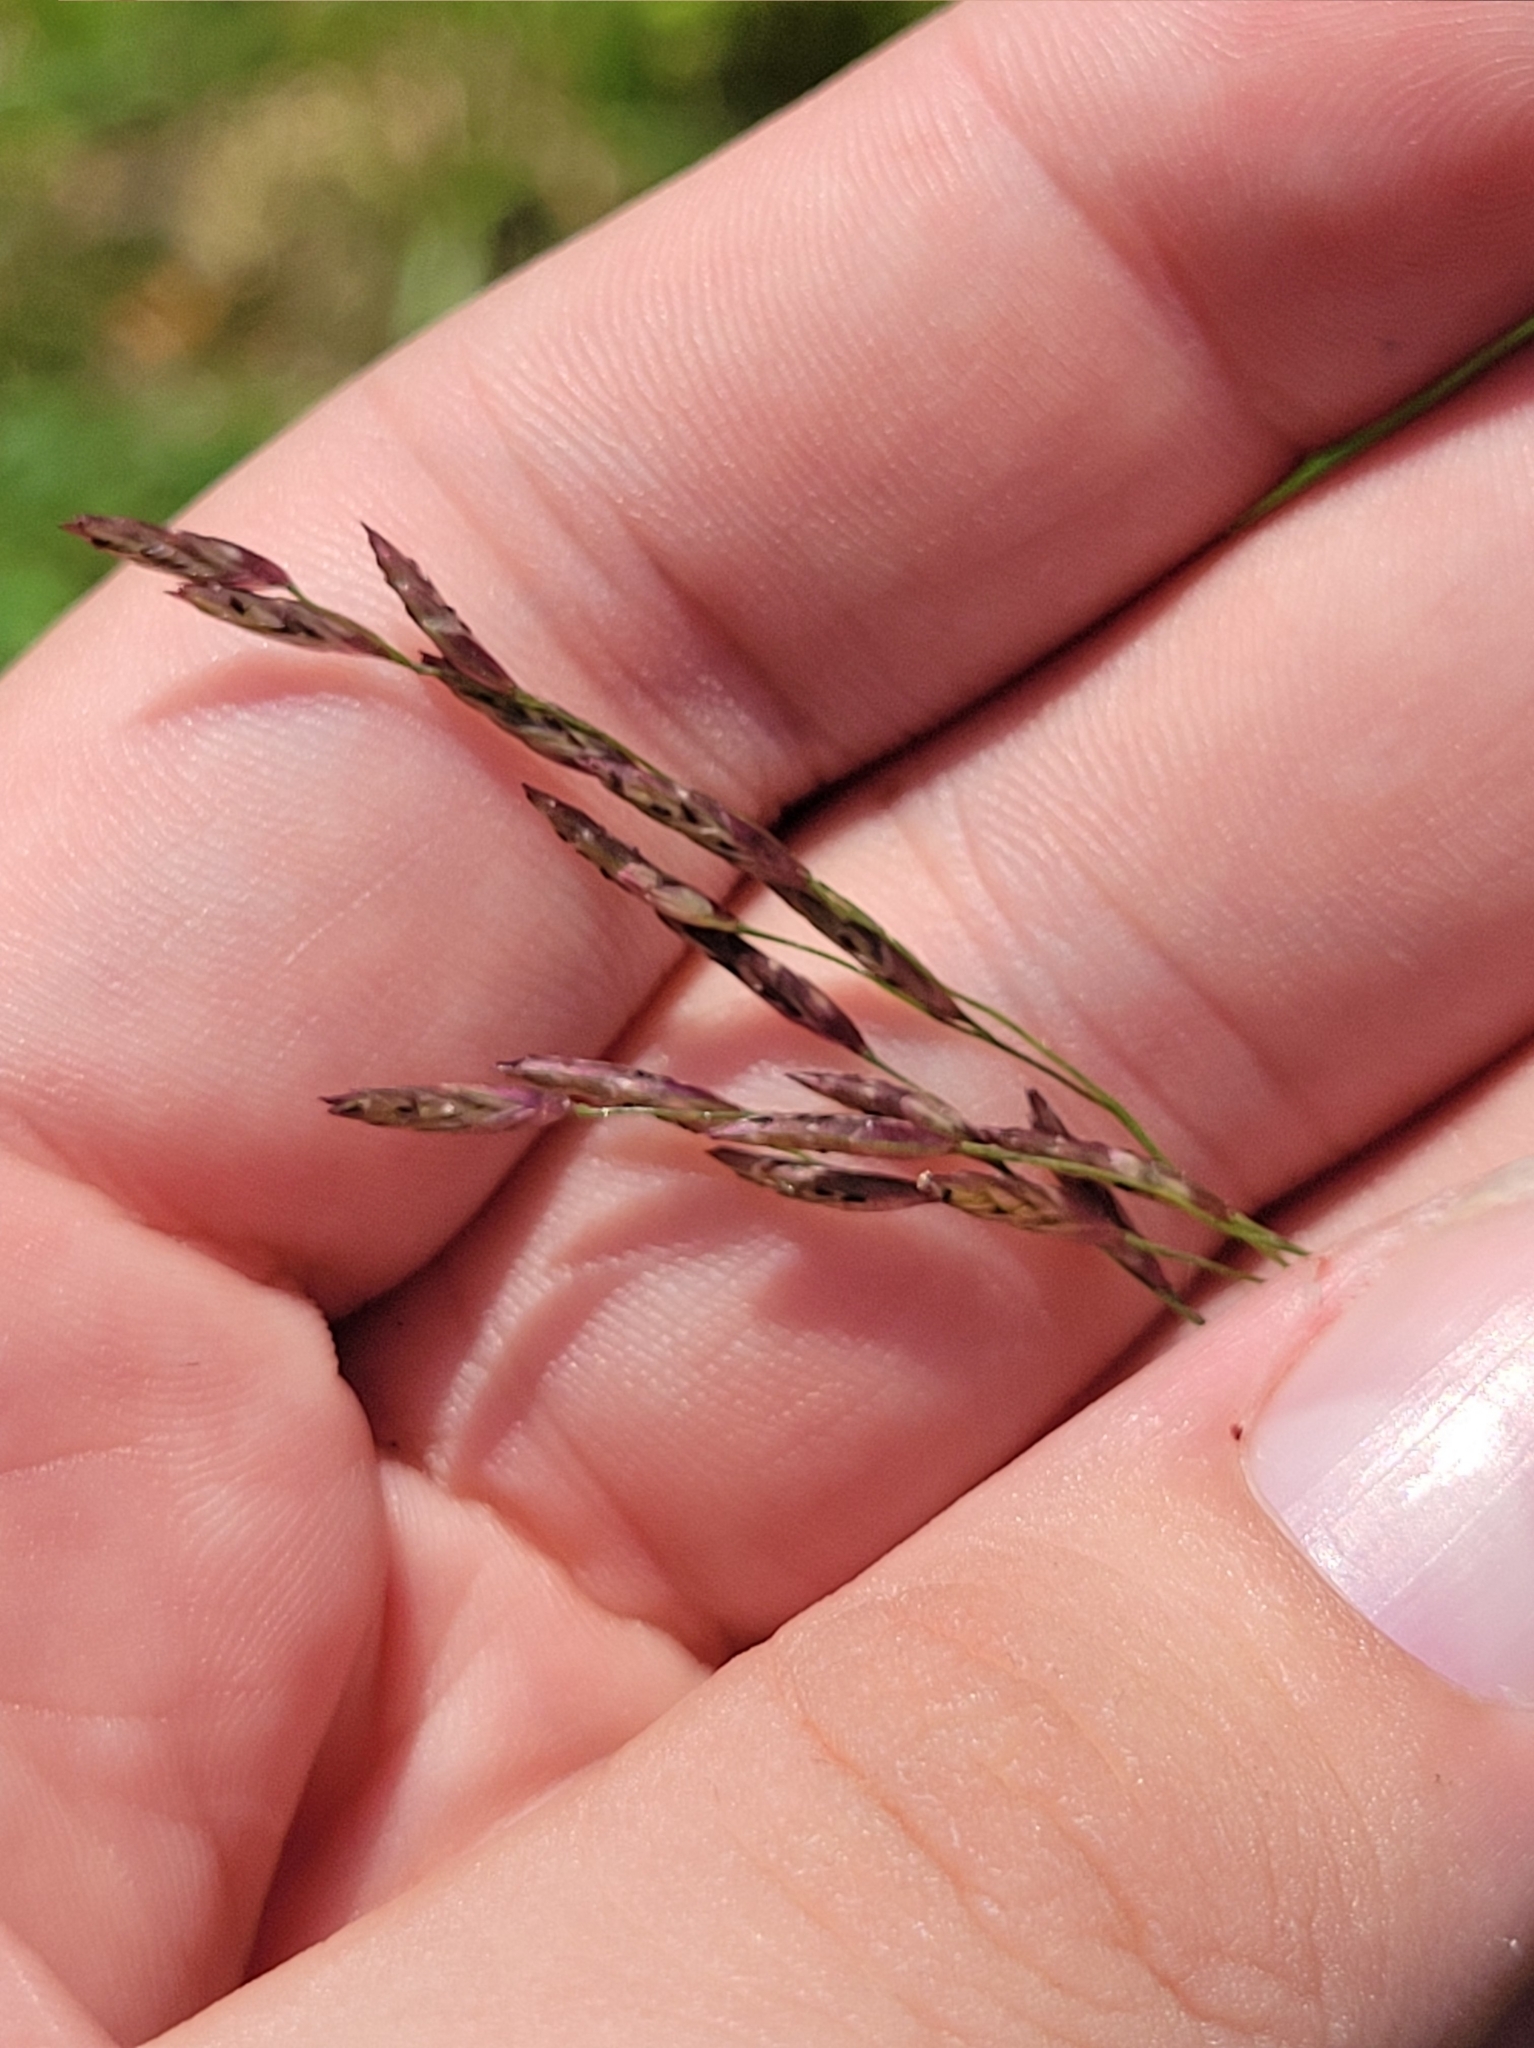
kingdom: Plantae
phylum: Tracheophyta
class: Liliopsida
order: Poales
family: Poaceae
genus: Tridens
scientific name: Tridens flavus
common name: Purpletop
